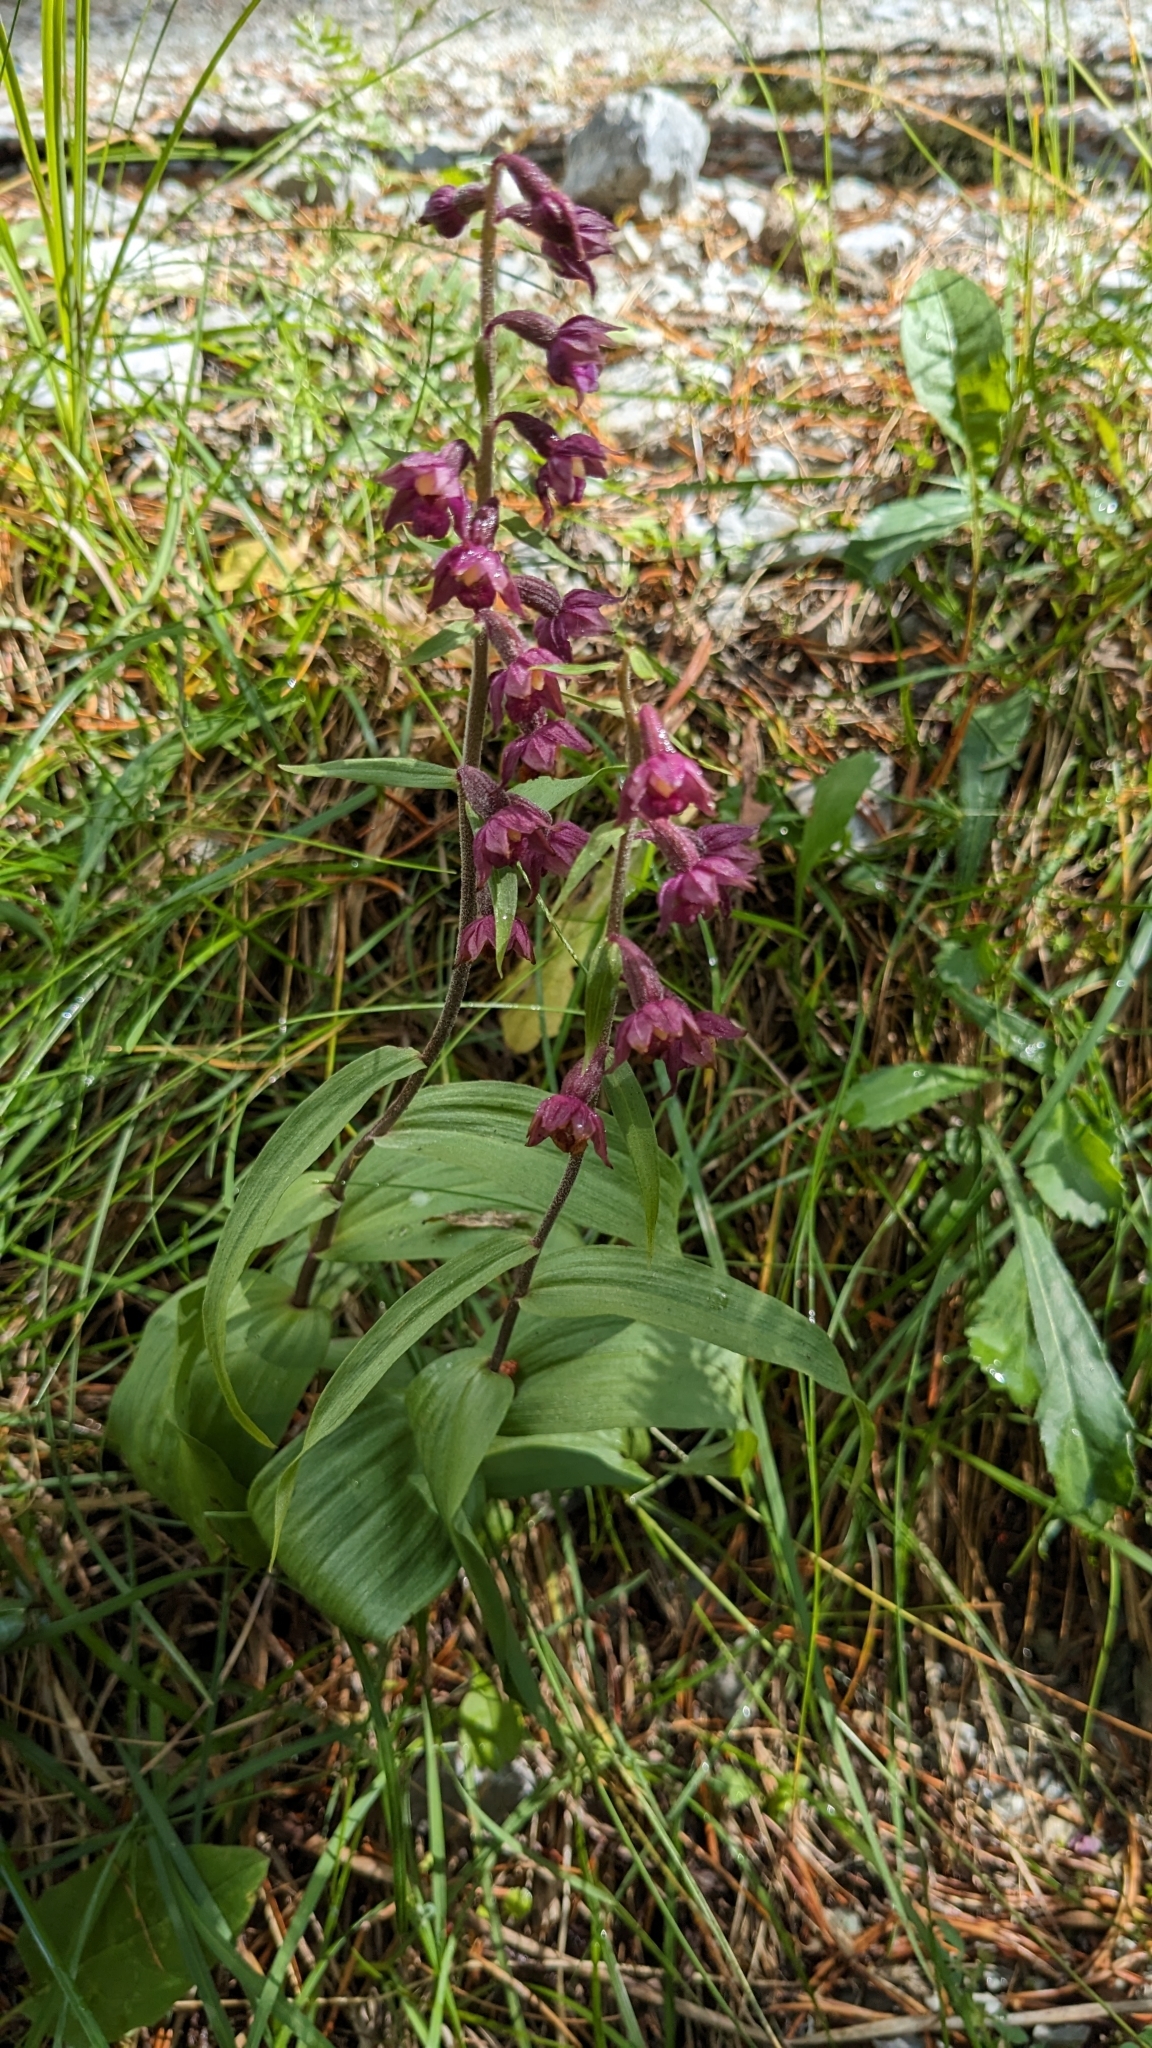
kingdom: Plantae
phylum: Tracheophyta
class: Liliopsida
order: Asparagales
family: Orchidaceae
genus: Epipactis
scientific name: Epipactis atrorubens
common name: Dark-red helleborine
